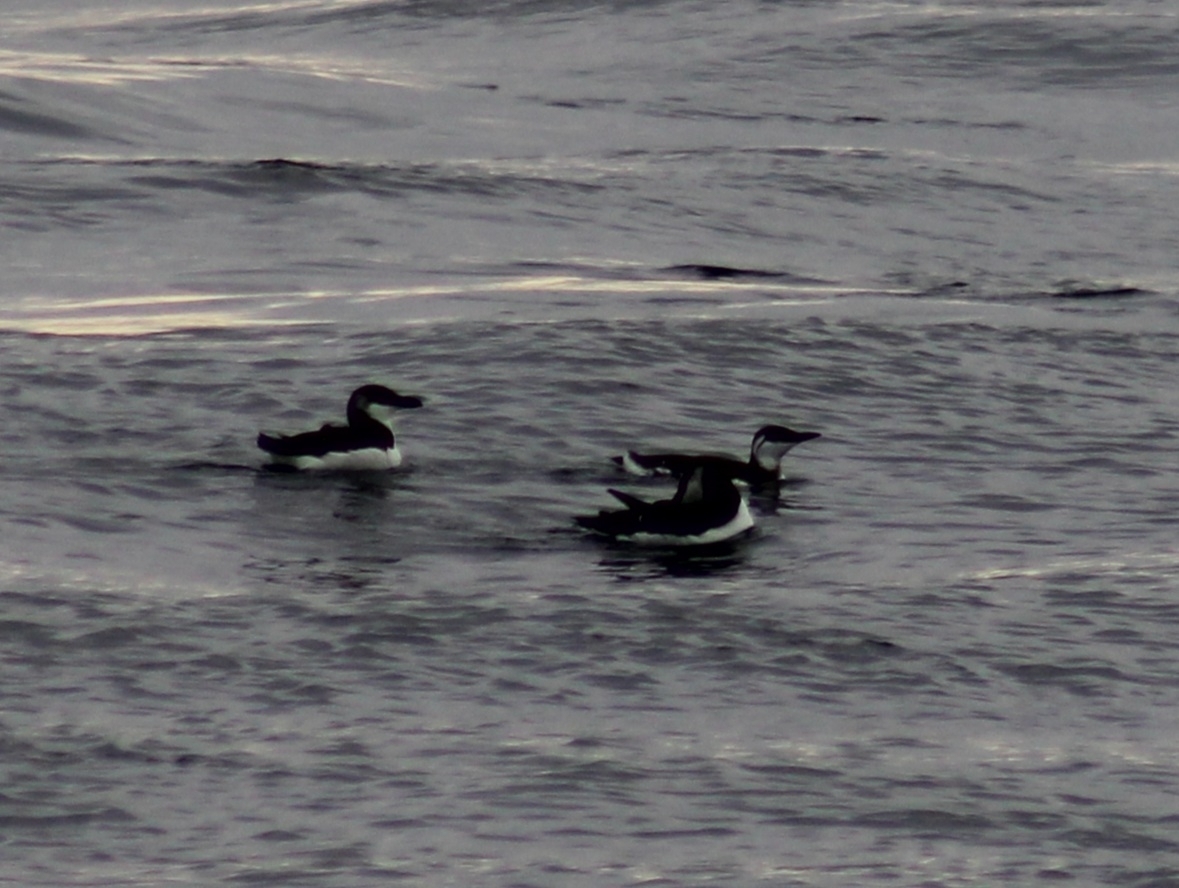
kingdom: Animalia
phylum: Chordata
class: Aves
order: Charadriiformes
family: Alcidae
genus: Uria
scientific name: Uria aalge
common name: Common murre
